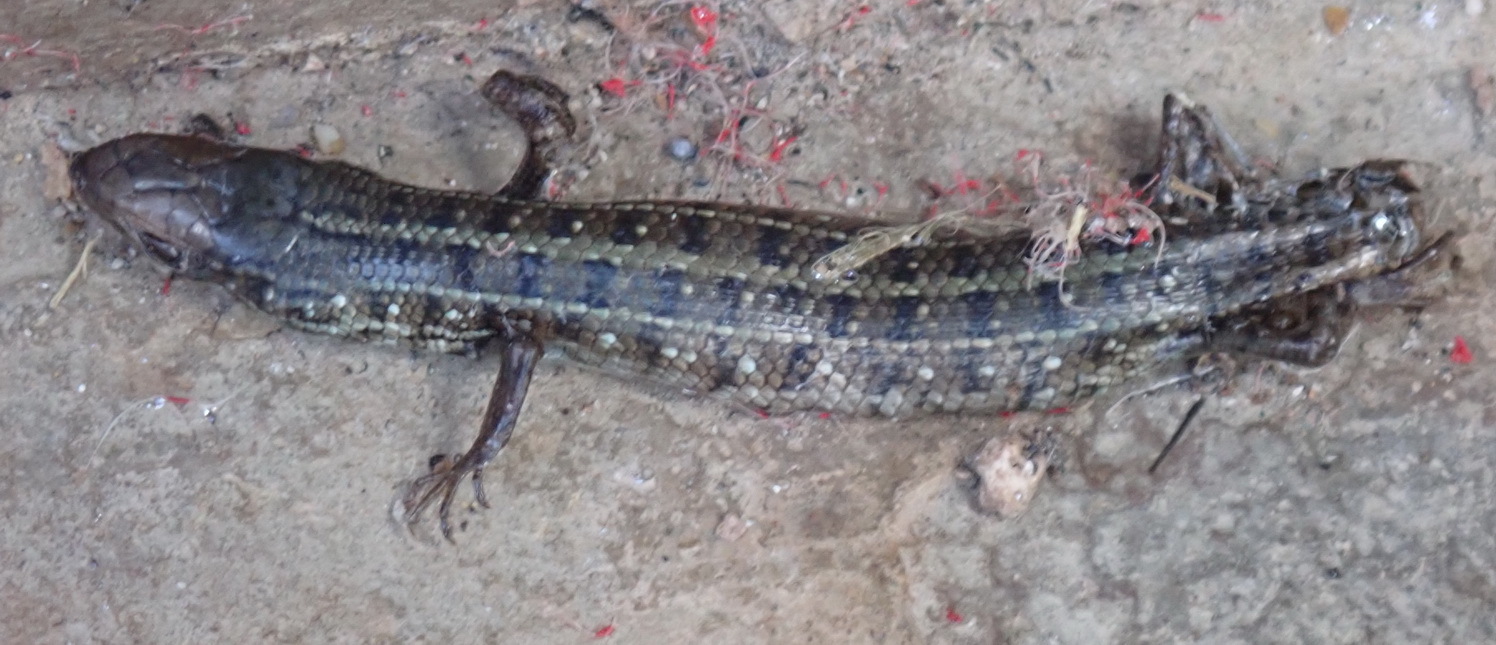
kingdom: Animalia
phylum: Chordata
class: Squamata
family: Scincidae
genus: Trachylepis
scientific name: Trachylepis capensis
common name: Cape skink
